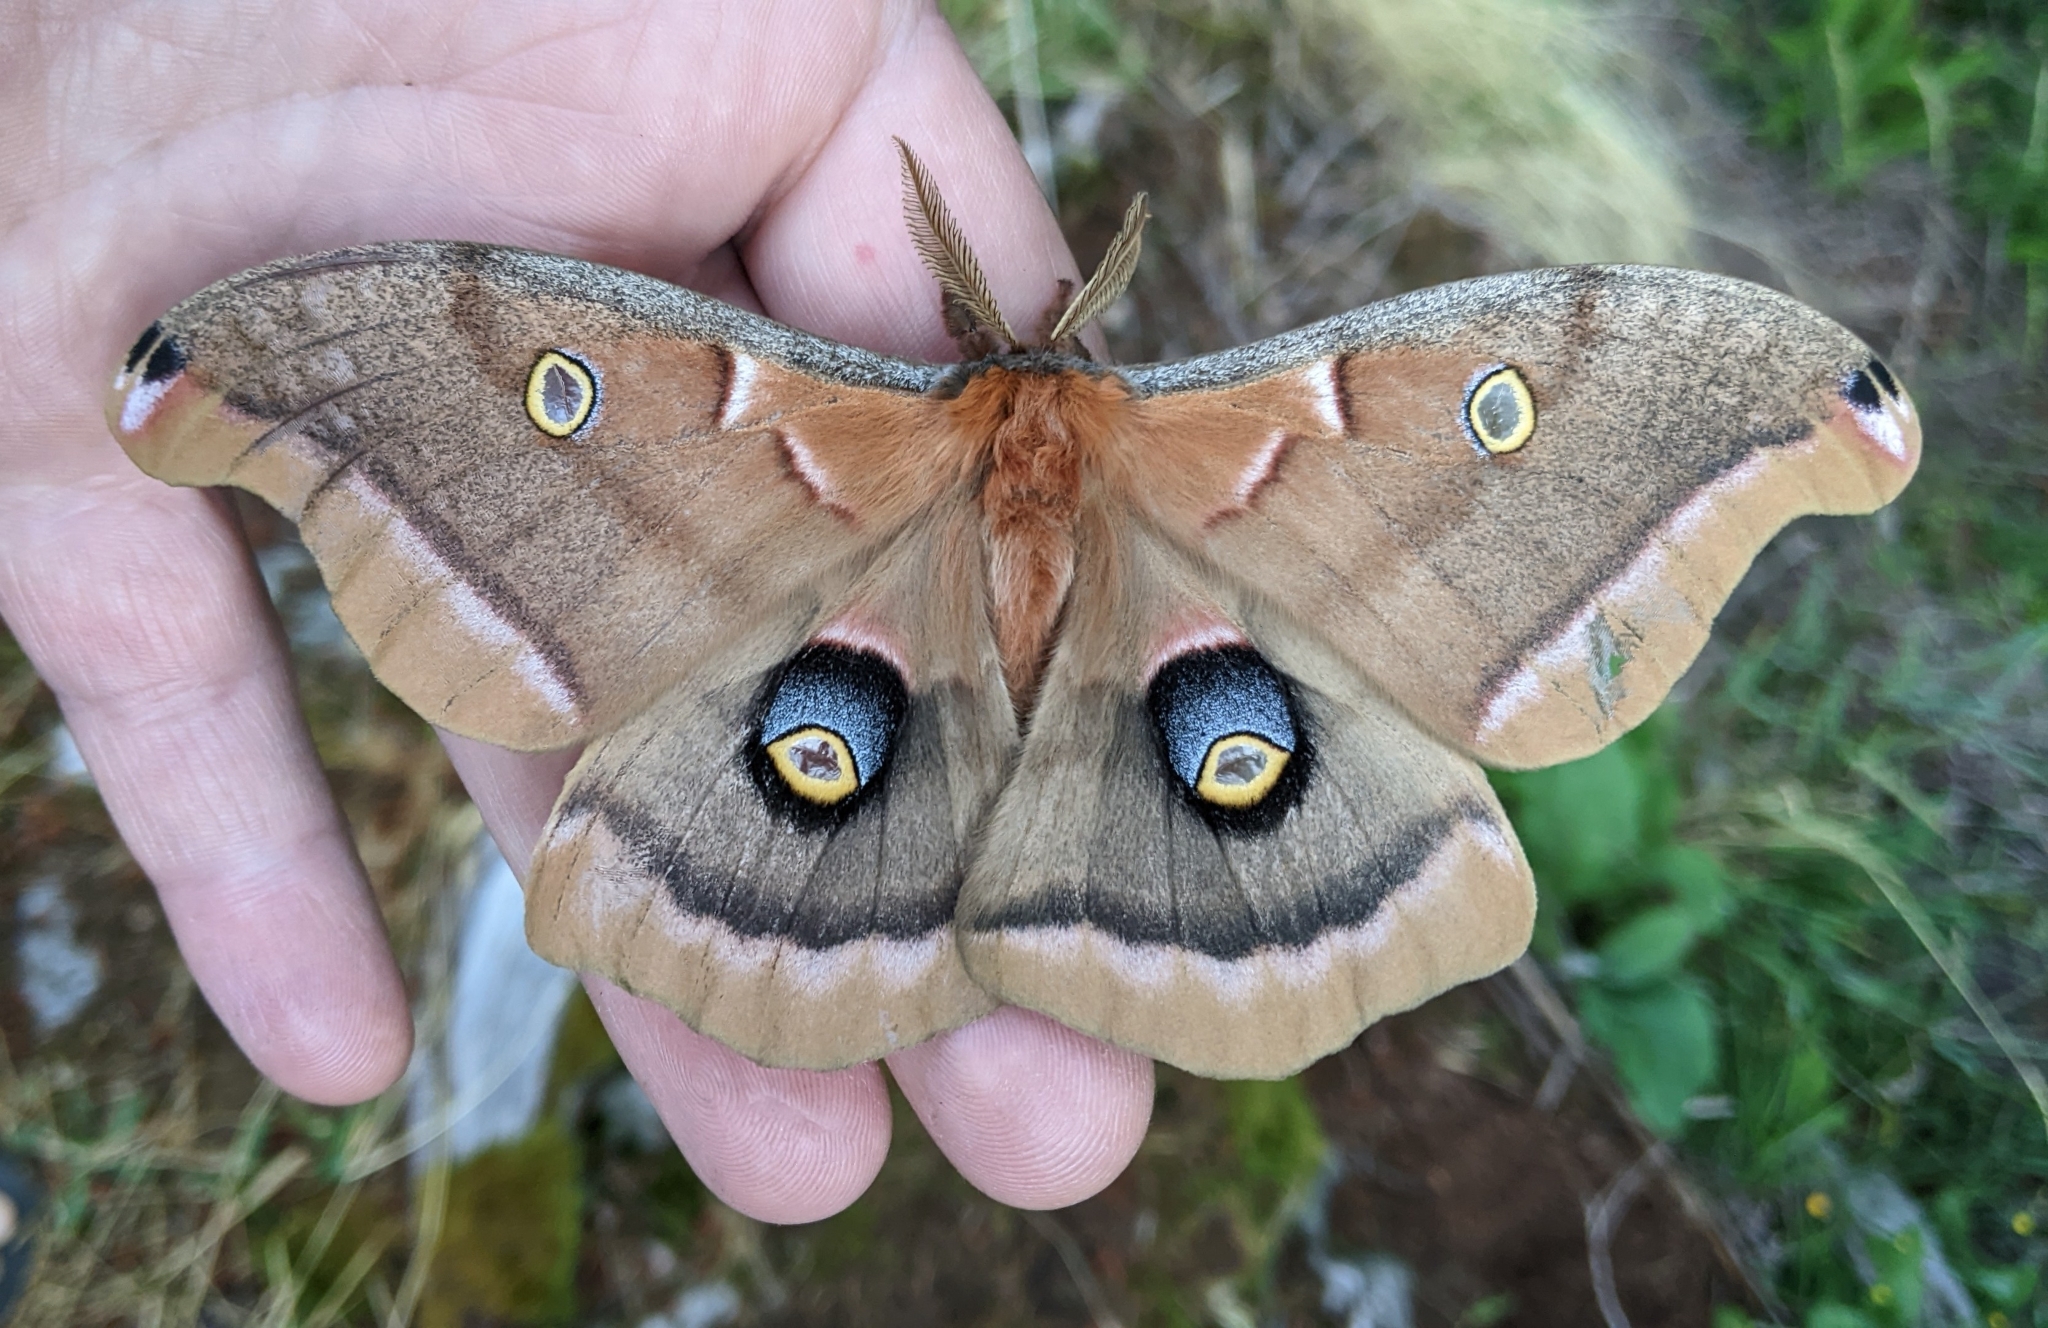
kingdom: Animalia
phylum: Arthropoda
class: Insecta
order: Lepidoptera
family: Saturniidae
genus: Antheraea
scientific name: Antheraea polyphemus
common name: Polyphemus moth
